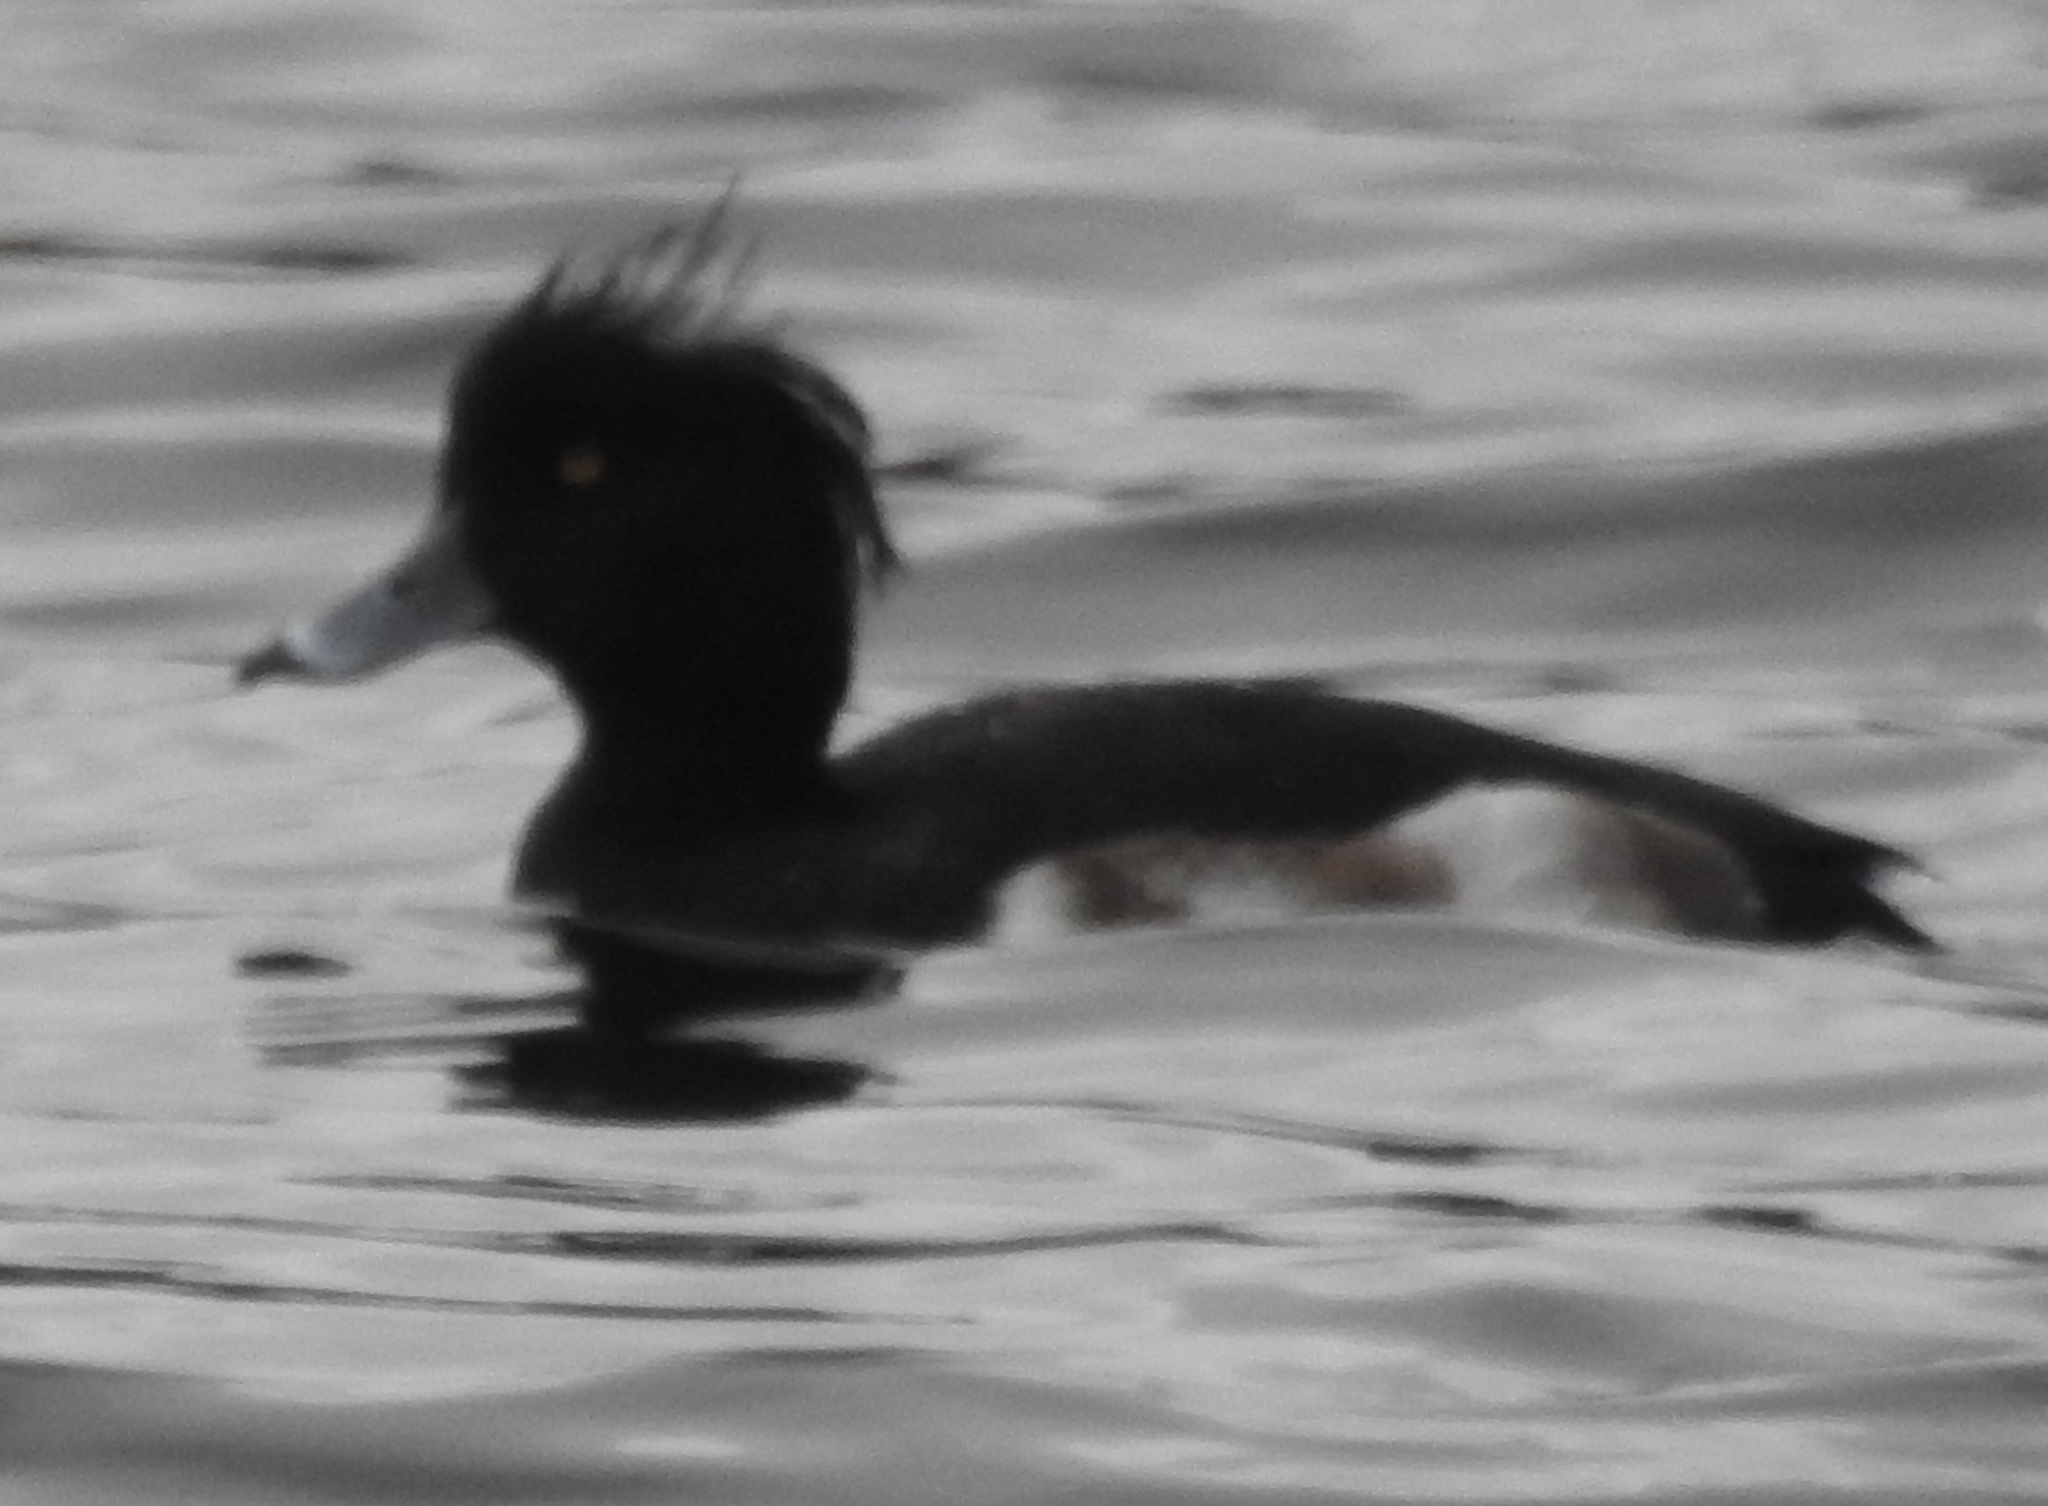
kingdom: Animalia
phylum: Chordata
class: Aves
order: Anseriformes
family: Anatidae
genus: Aythya
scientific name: Aythya fuligula
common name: Tufted duck
